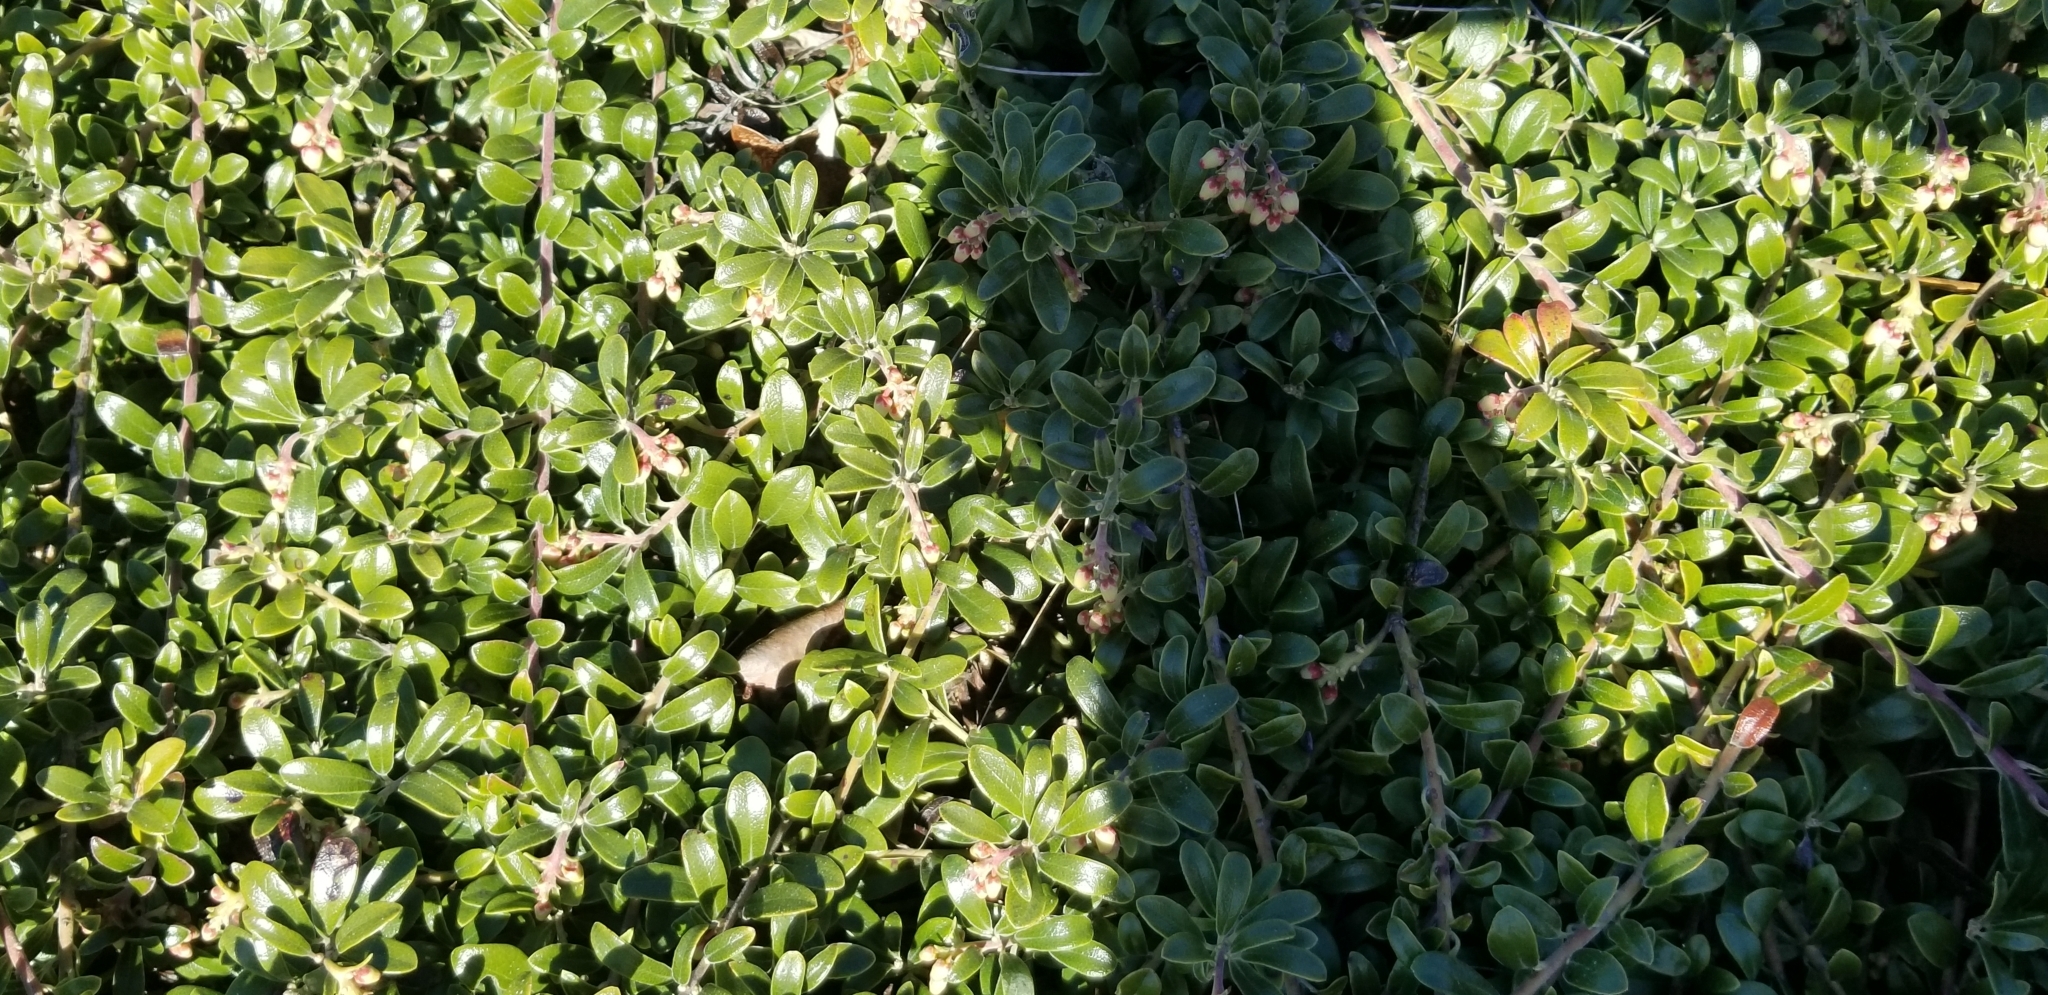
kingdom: Plantae
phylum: Tracheophyta
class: Magnoliopsida
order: Ericales
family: Ericaceae
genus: Arctostaphylos
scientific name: Arctostaphylos uva-ursi
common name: Bearberry
